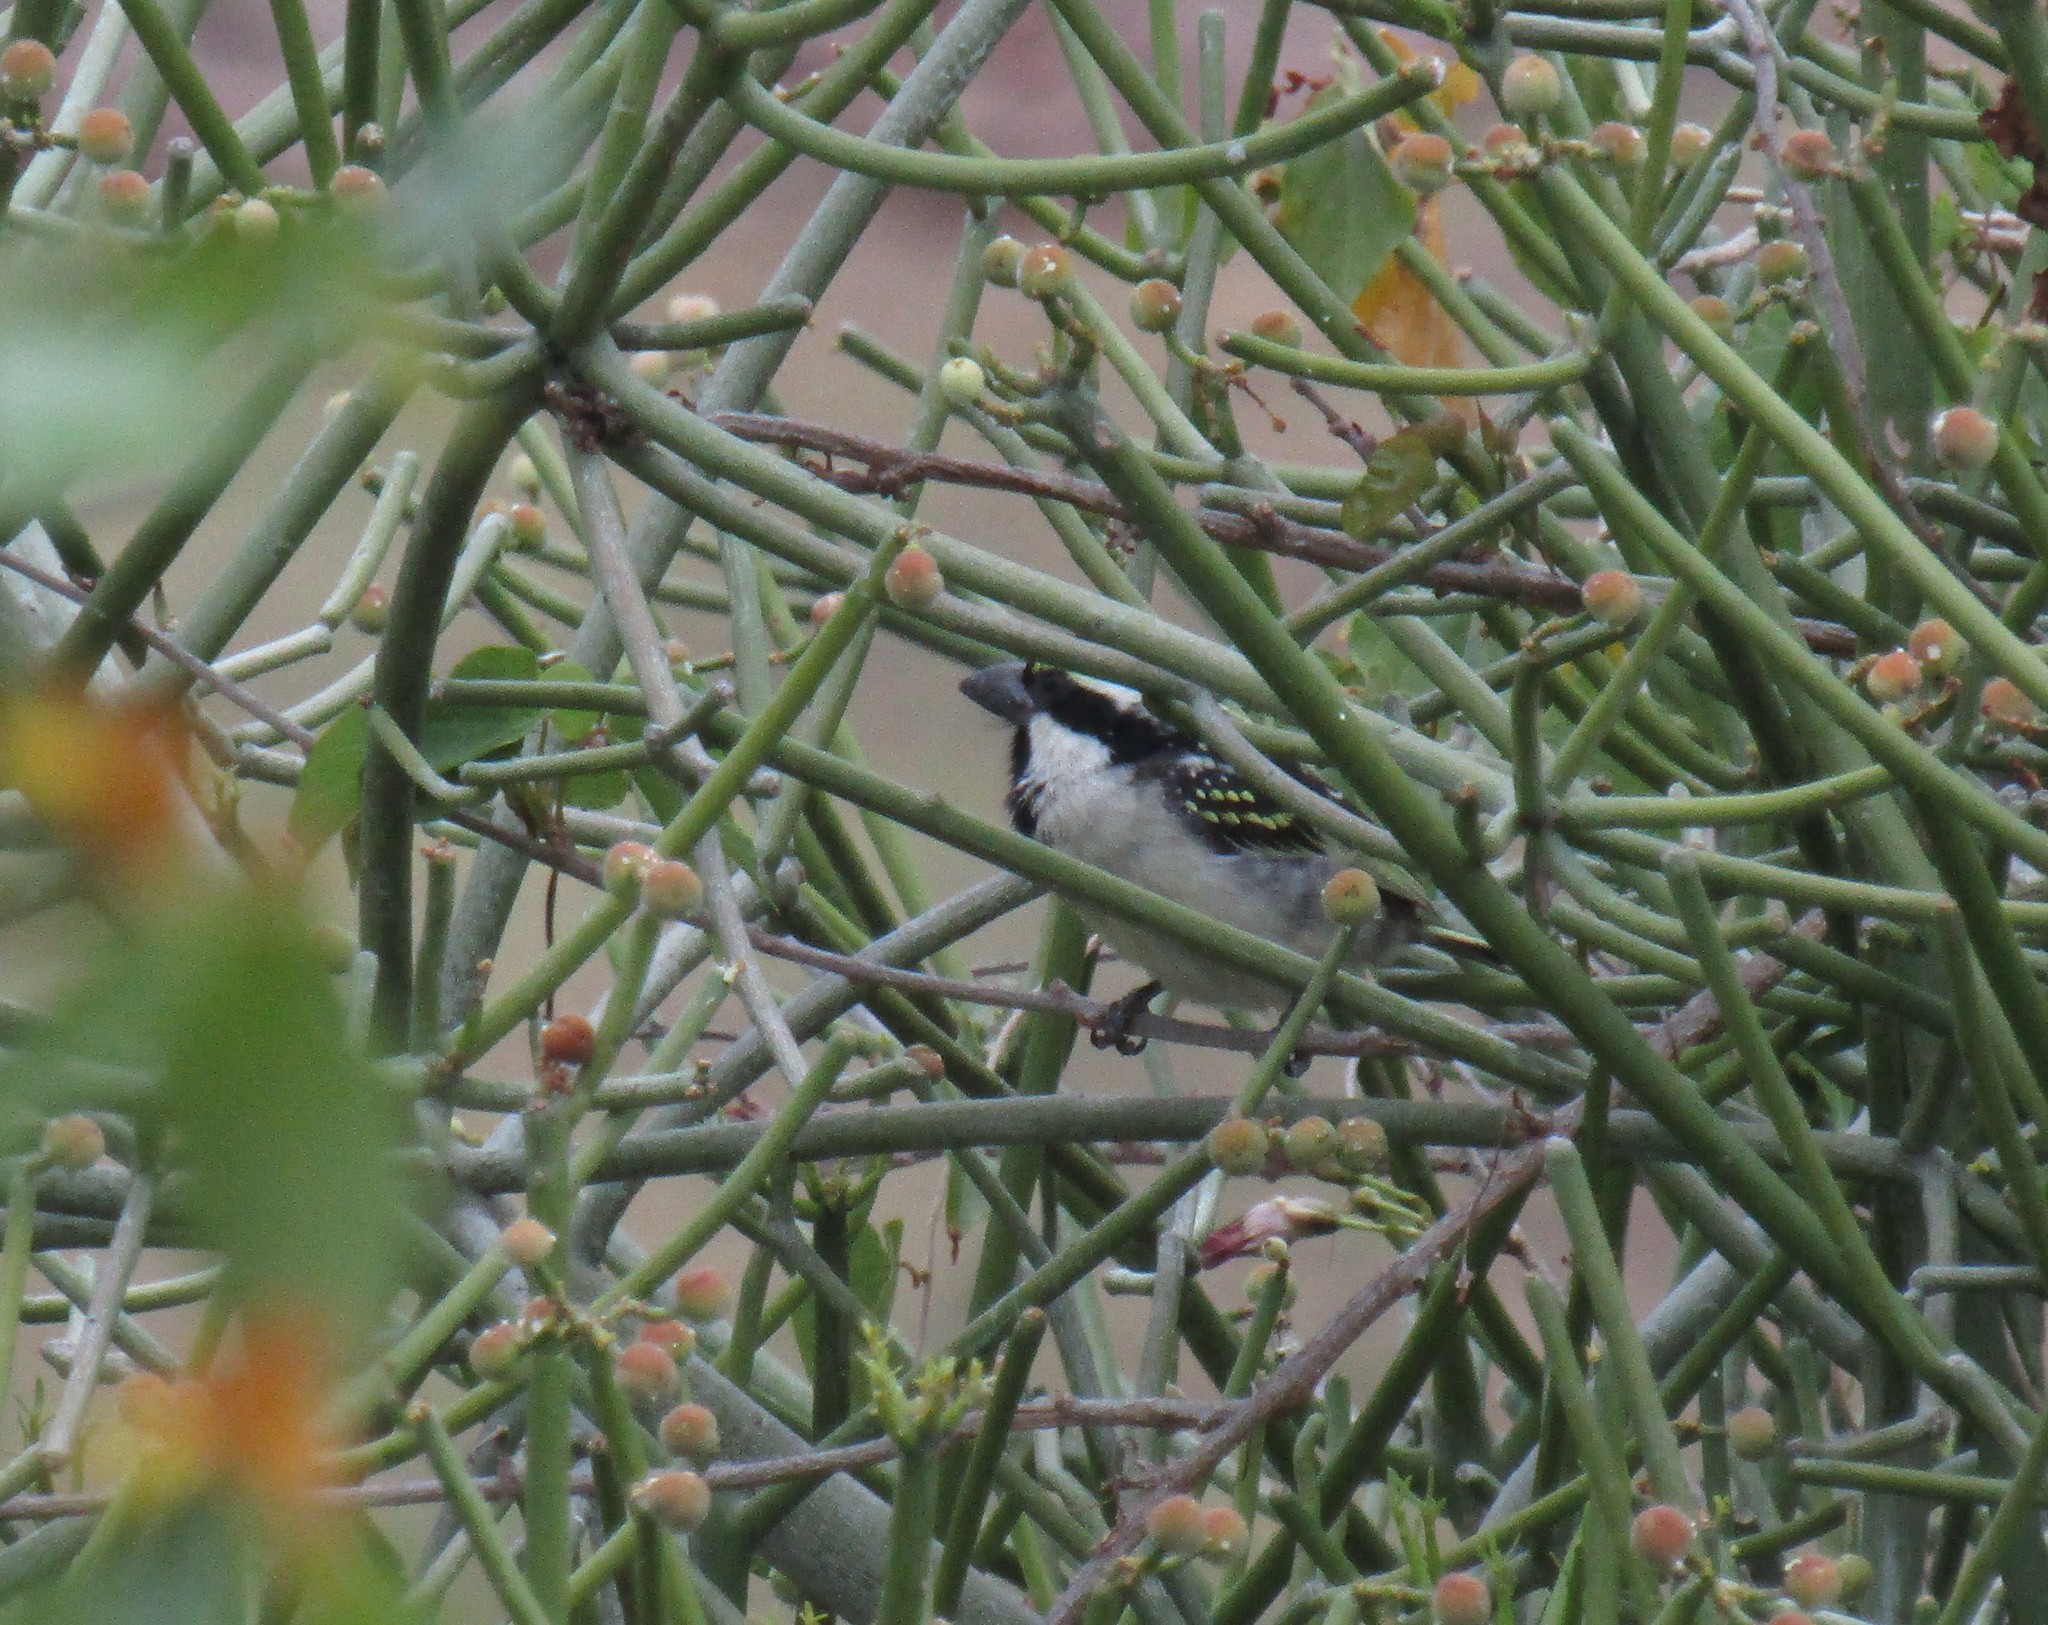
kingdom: Animalia
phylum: Chordata
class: Aves
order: Piciformes
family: Lybiidae
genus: Tricholaema
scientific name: Tricholaema leucomelas
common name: Acacia pied barbet
